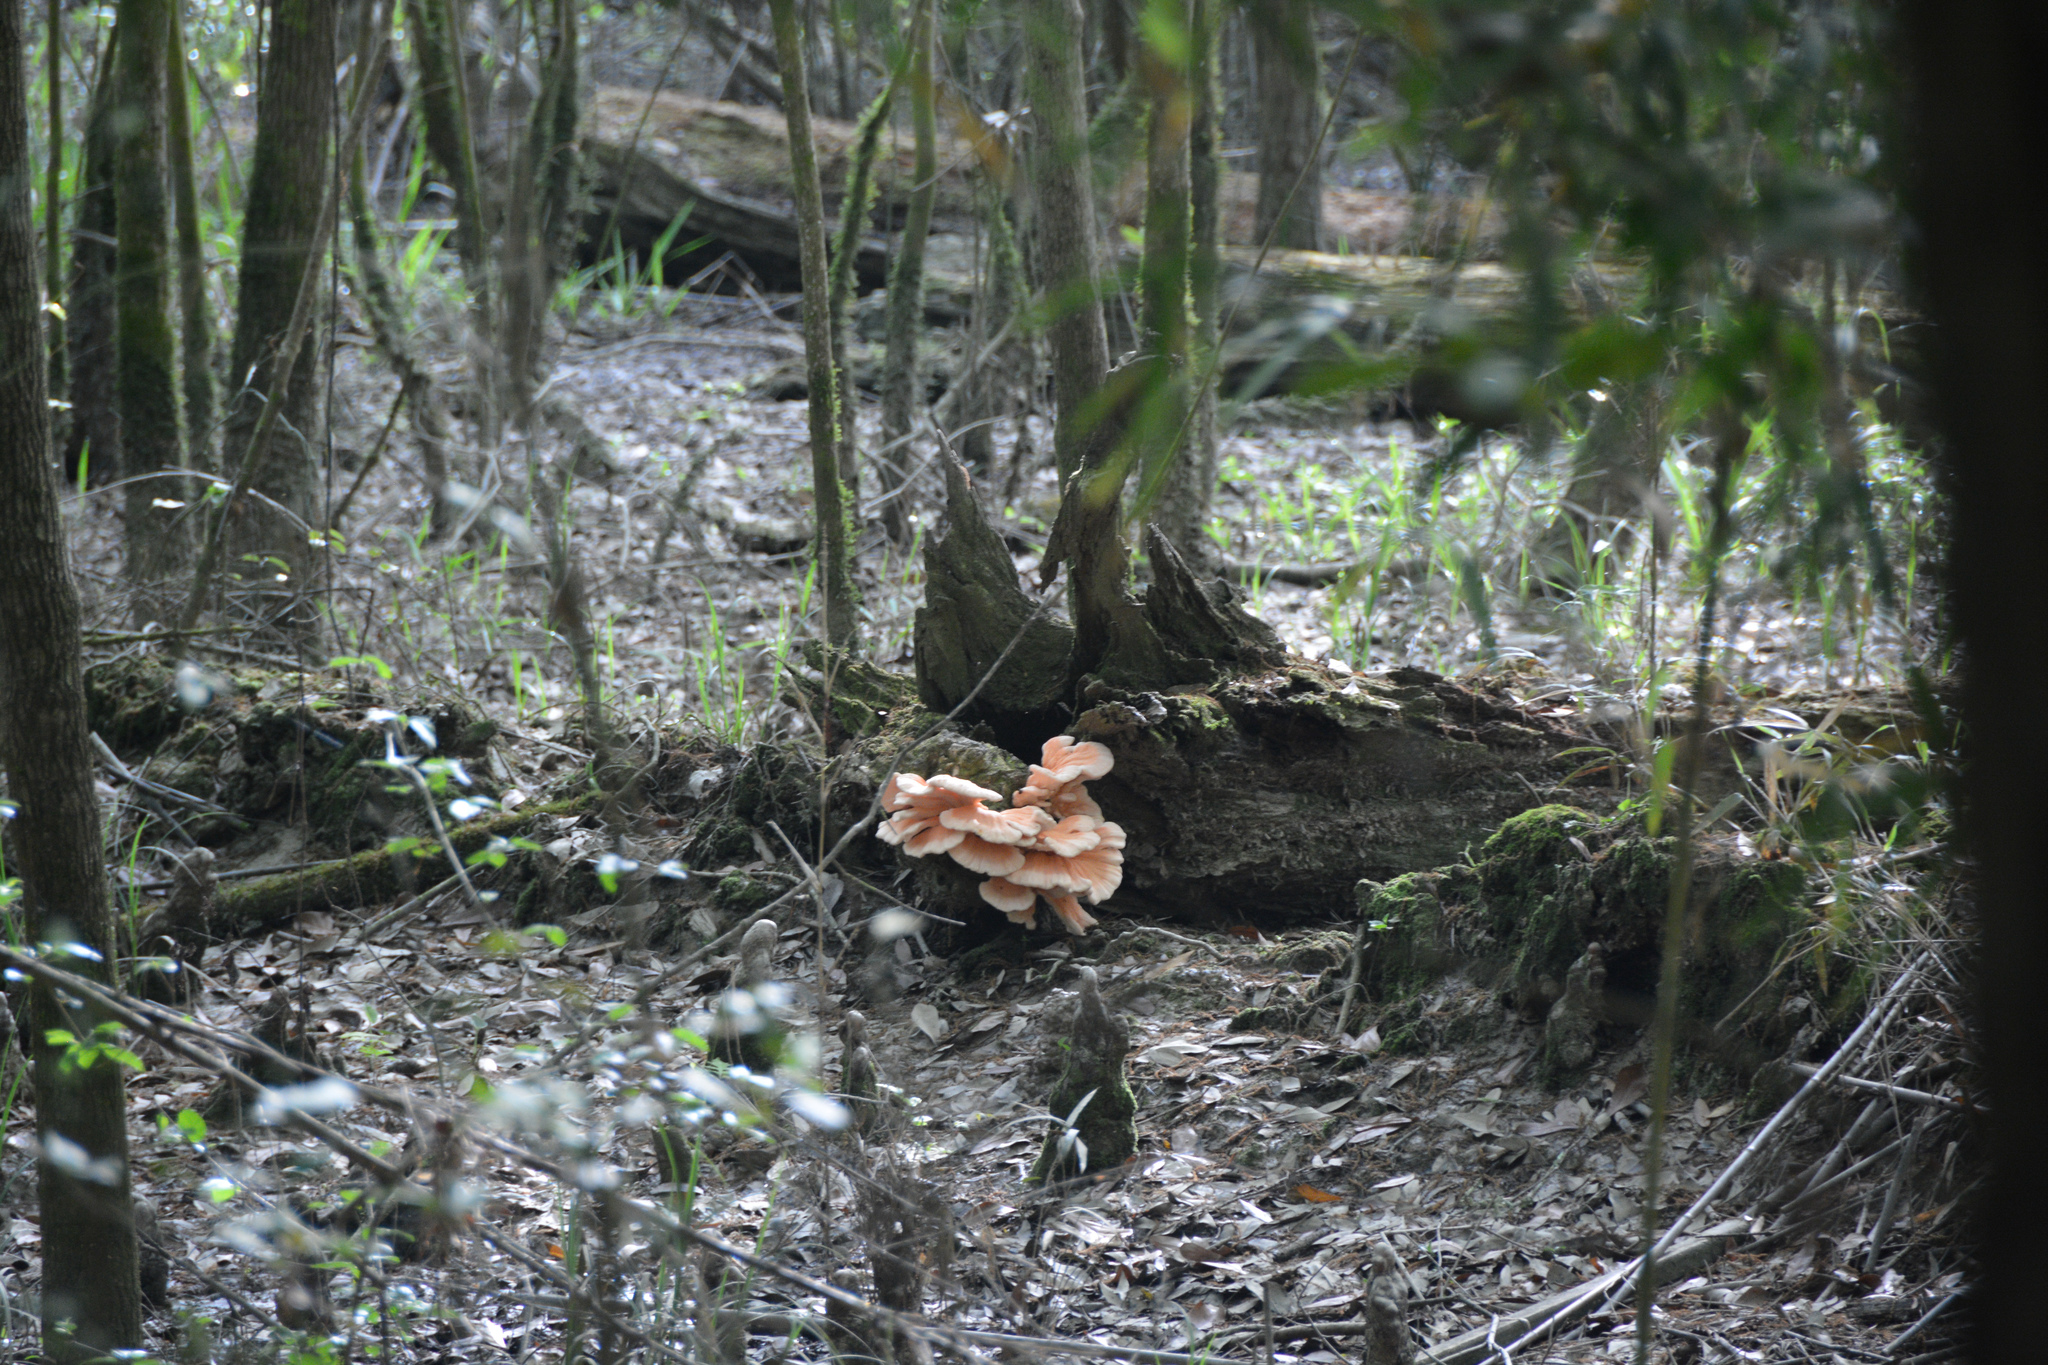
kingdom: Fungi
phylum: Basidiomycota
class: Agaricomycetes
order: Polyporales
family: Laetiporaceae
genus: Laetiporus
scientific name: Laetiporus sulphureus
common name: Chicken of the woods
